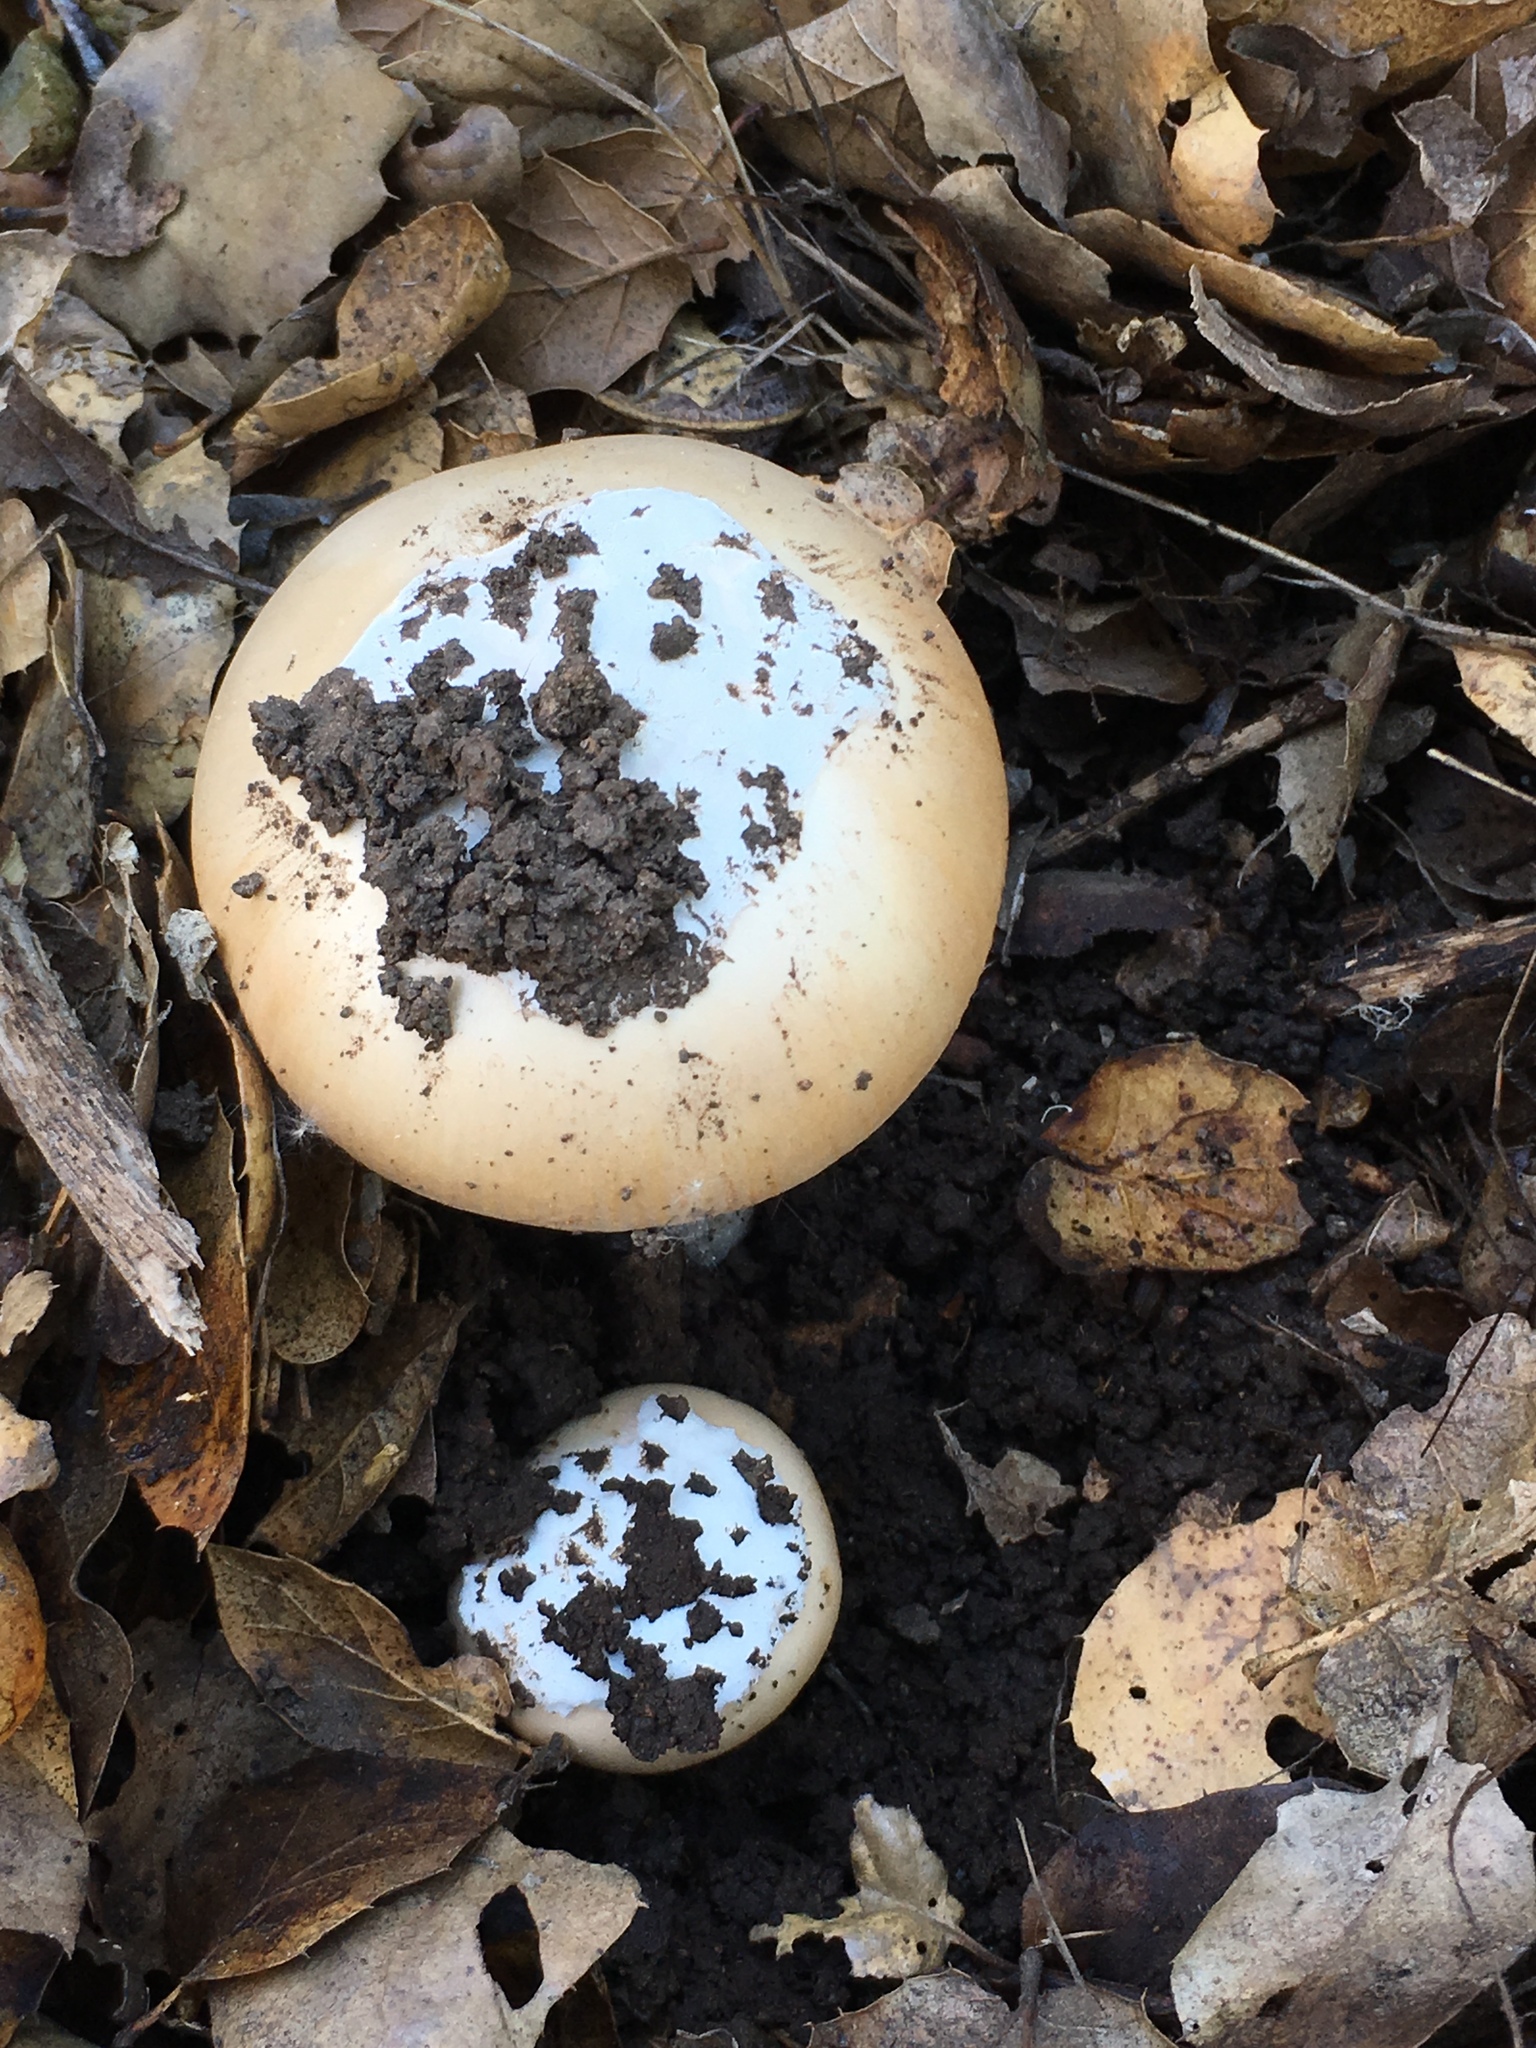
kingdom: Fungi
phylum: Basidiomycota
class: Agaricomycetes
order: Agaricales
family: Amanitaceae
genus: Amanita
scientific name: Amanita velosa
